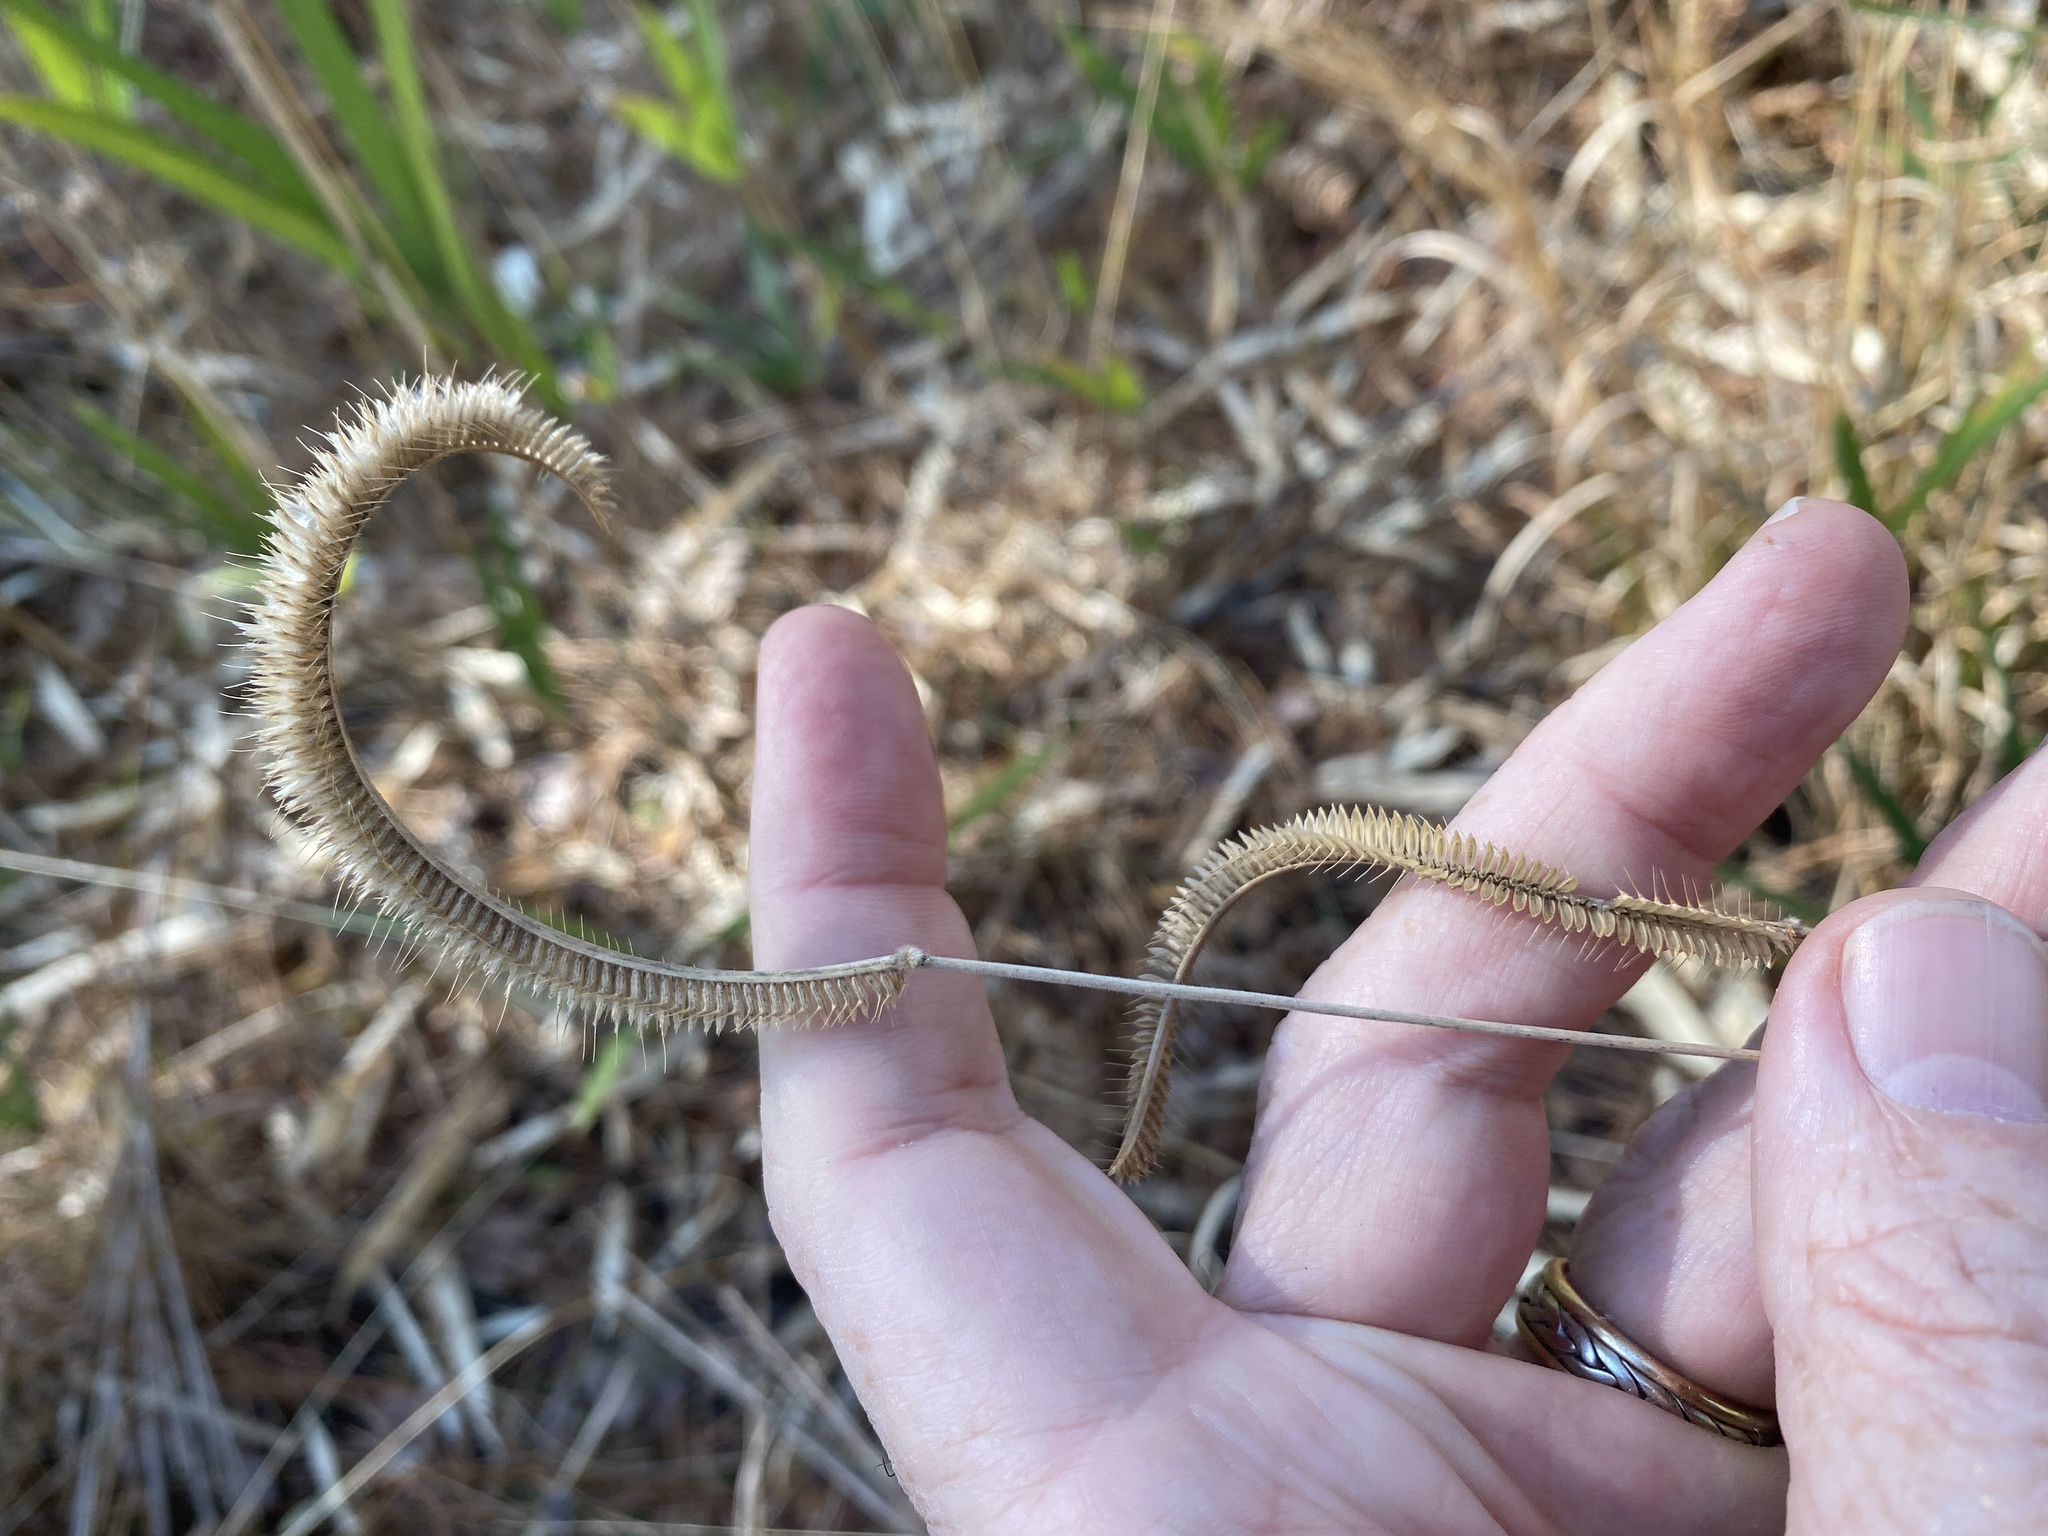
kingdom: Plantae
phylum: Tracheophyta
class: Liliopsida
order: Poales
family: Poaceae
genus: Ctenium
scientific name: Ctenium aromaticum
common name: Toothache grass
